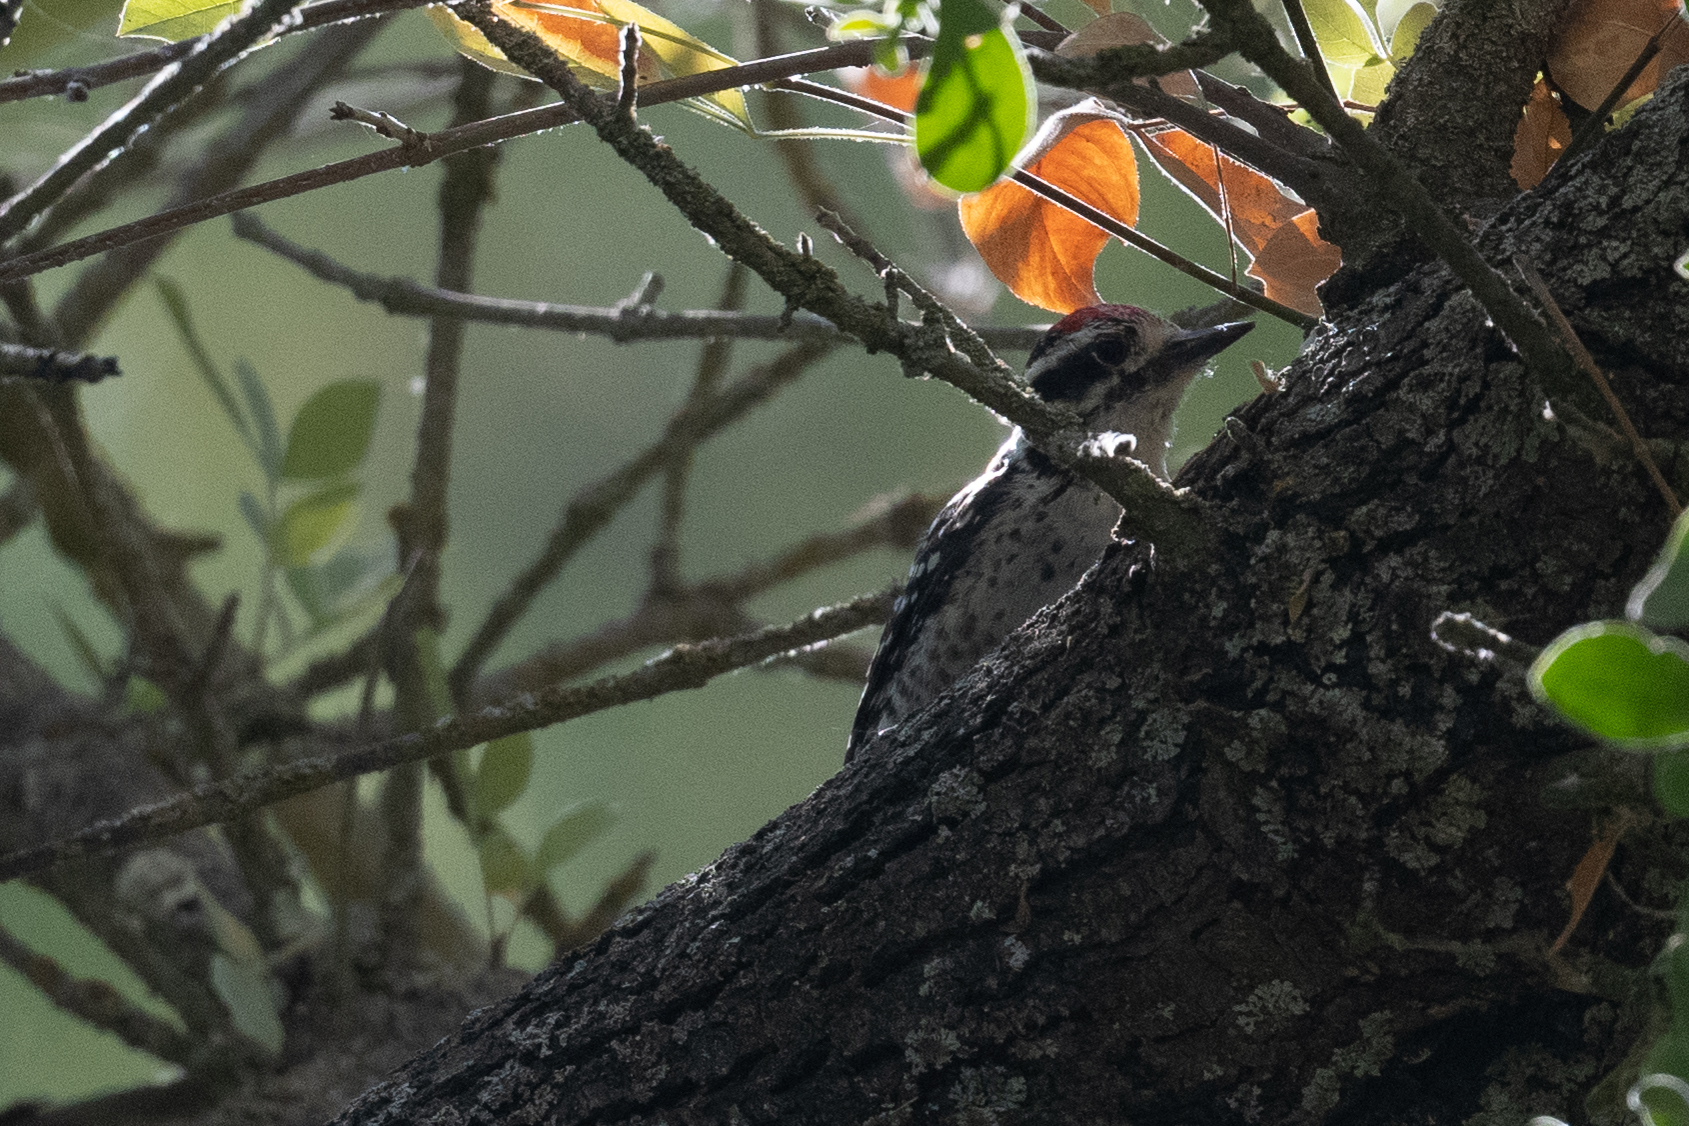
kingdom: Animalia
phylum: Chordata
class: Aves
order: Piciformes
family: Picidae
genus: Dryobates
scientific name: Dryobates nuttallii
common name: Nuttall's woodpecker
